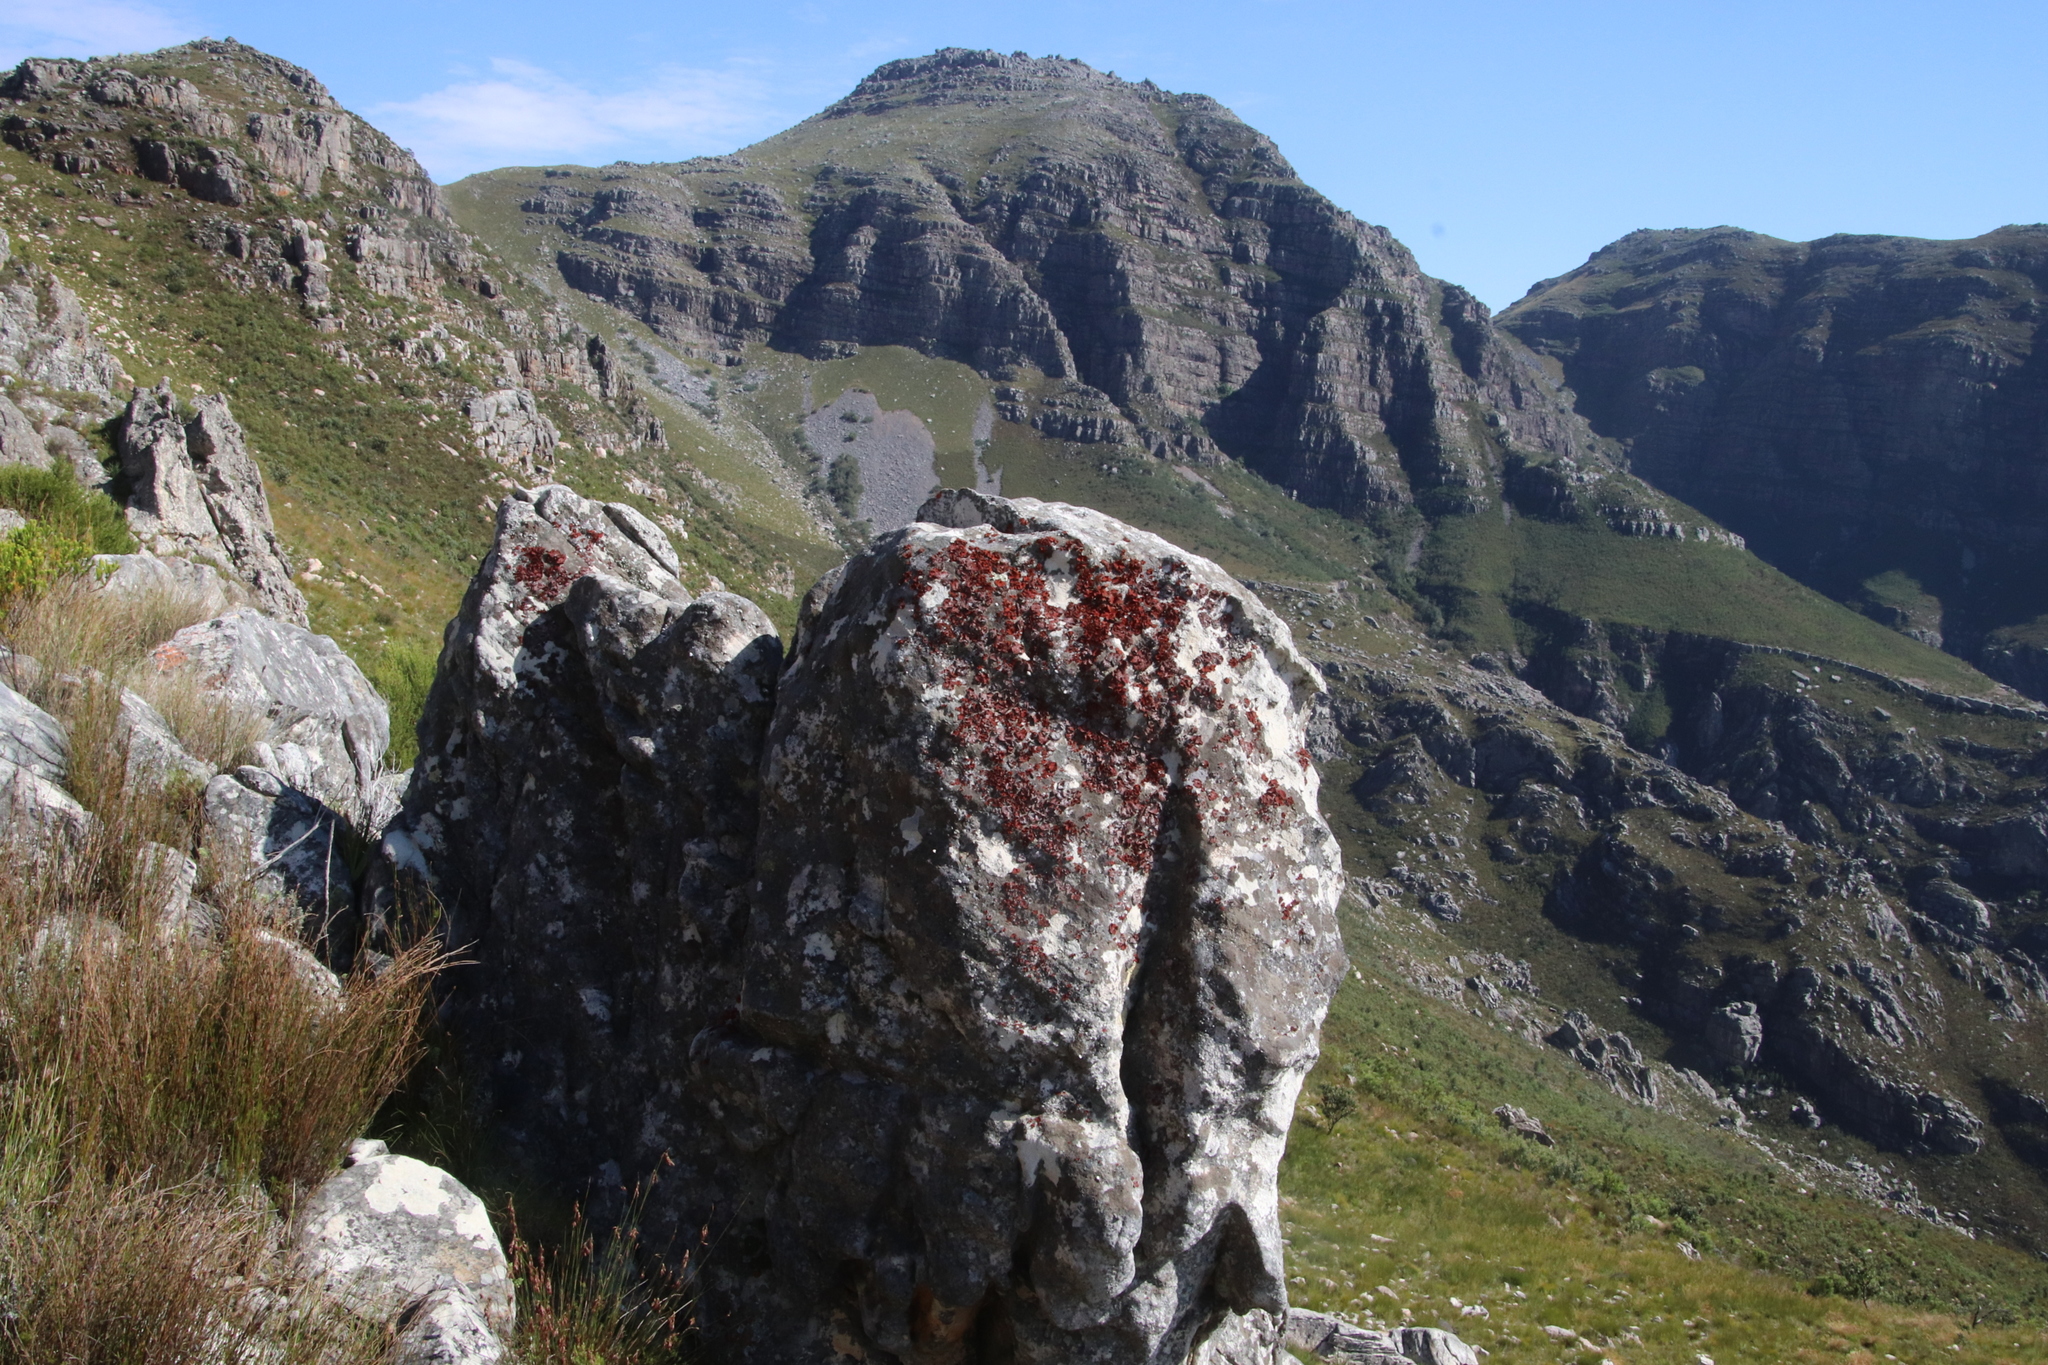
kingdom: Fungi
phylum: Ascomycota
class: Lecanoromycetes
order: Umbilicariales
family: Umbilicariaceae
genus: Lasallia
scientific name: Lasallia rubiginosa
